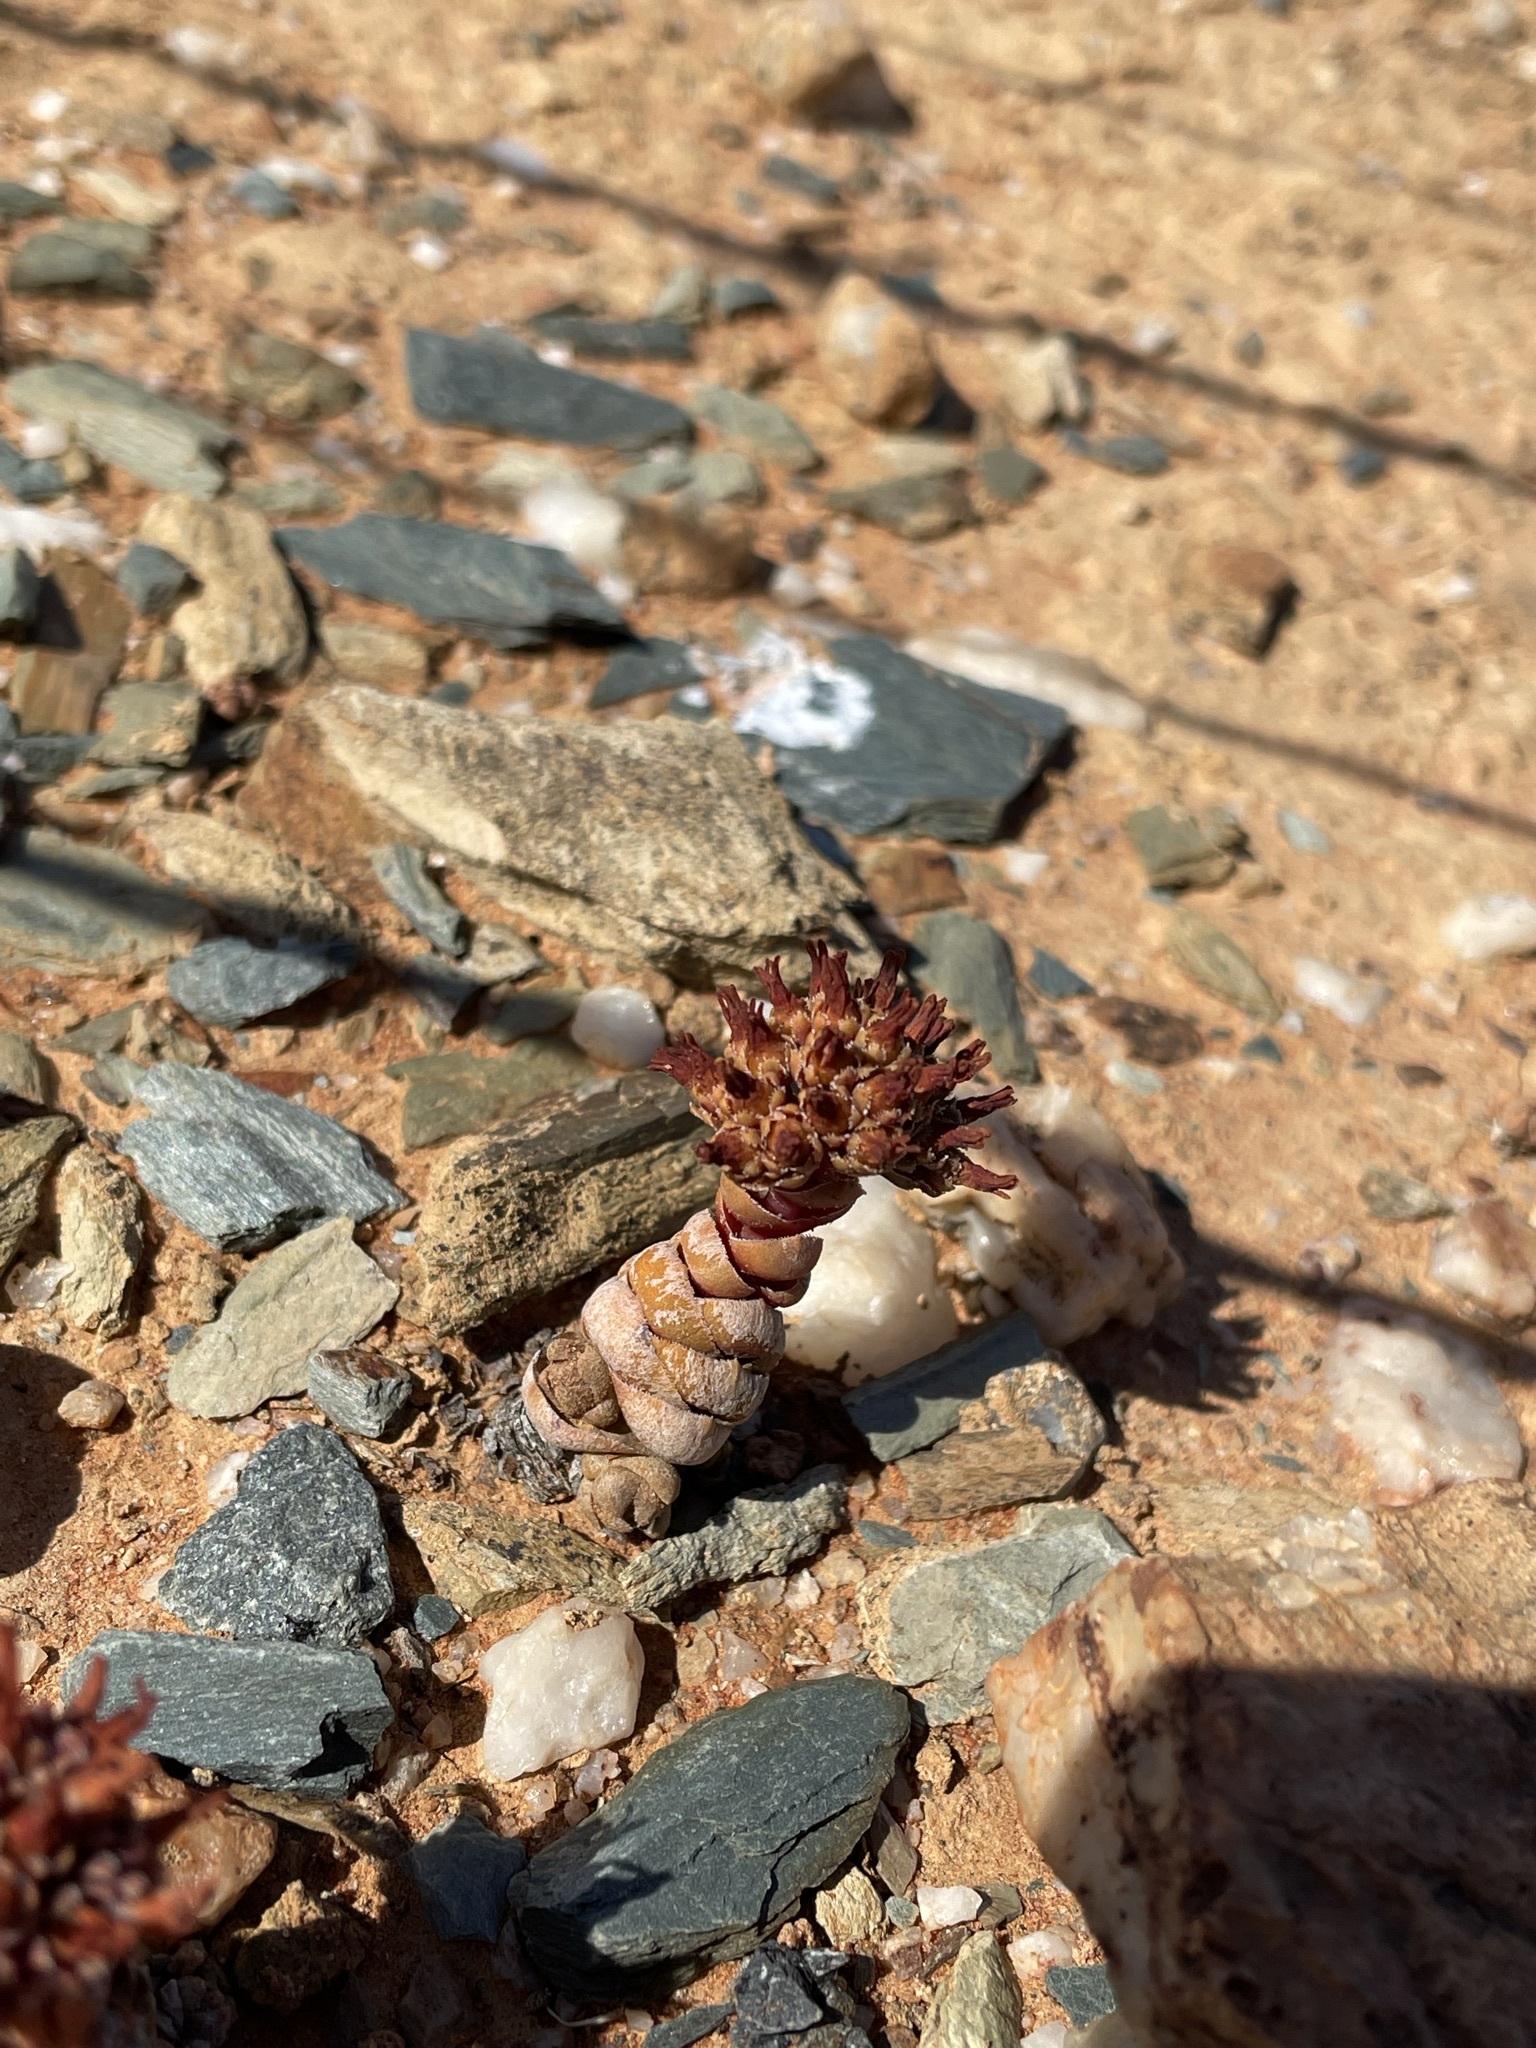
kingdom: Plantae
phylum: Tracheophyta
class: Magnoliopsida
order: Saxifragales
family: Crassulaceae
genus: Crassula
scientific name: Crassula columnaris
